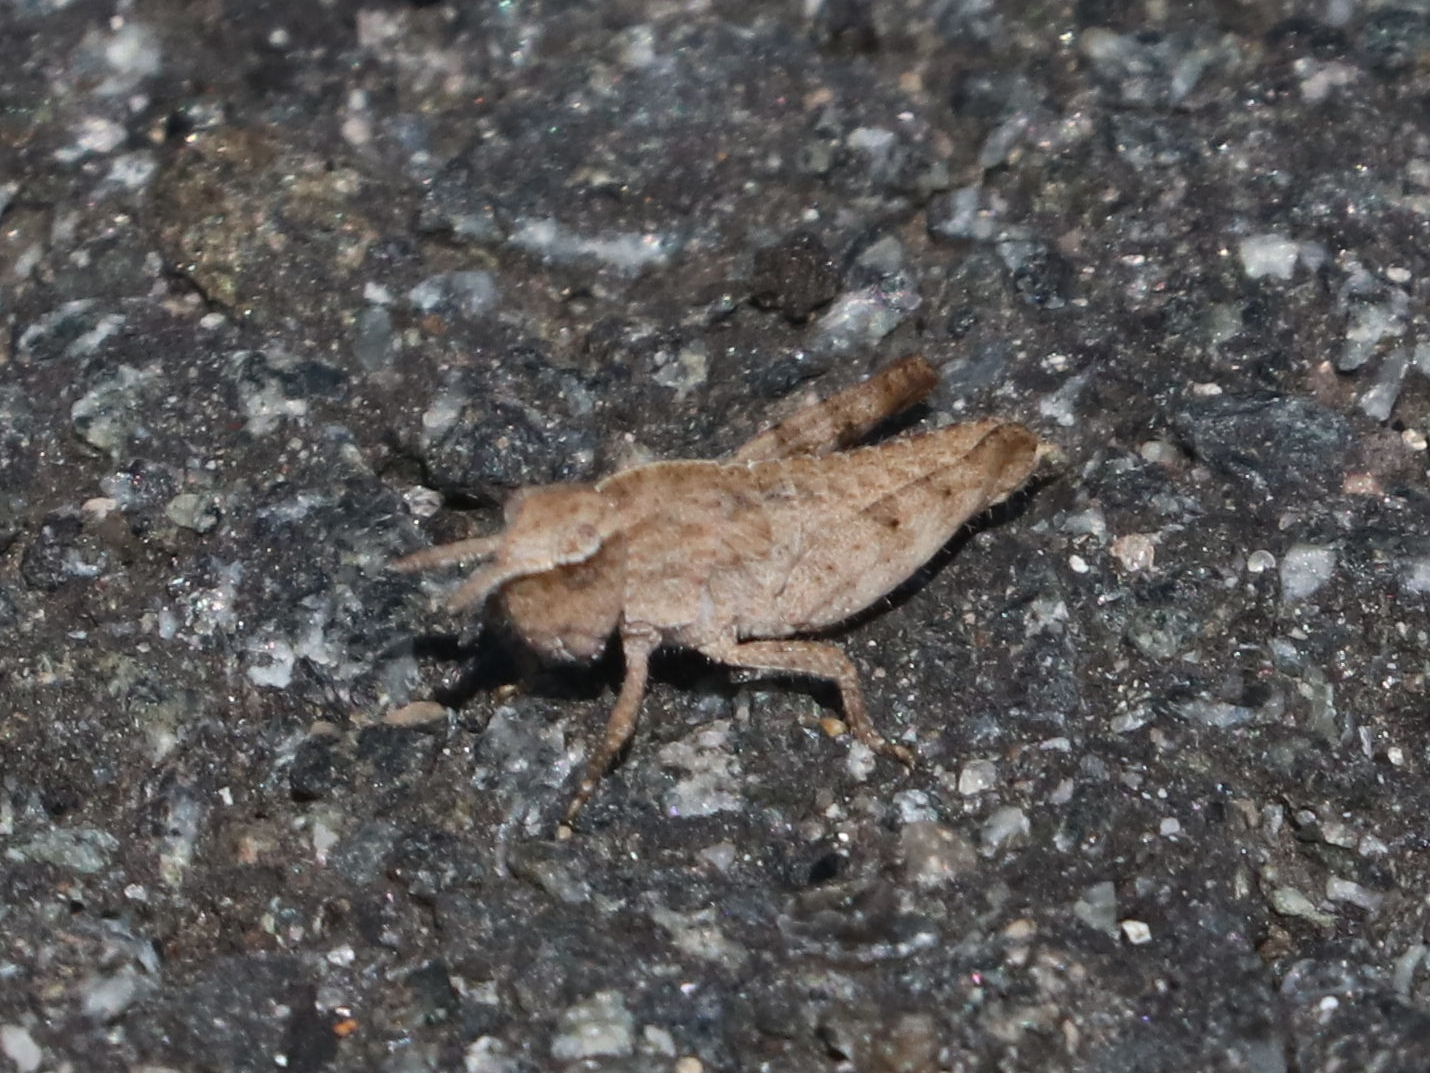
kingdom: Animalia
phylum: Arthropoda
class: Insecta
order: Orthoptera
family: Acrididae
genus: Chortophaga
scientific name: Chortophaga viridifasciata
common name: Green-striped grasshopper
